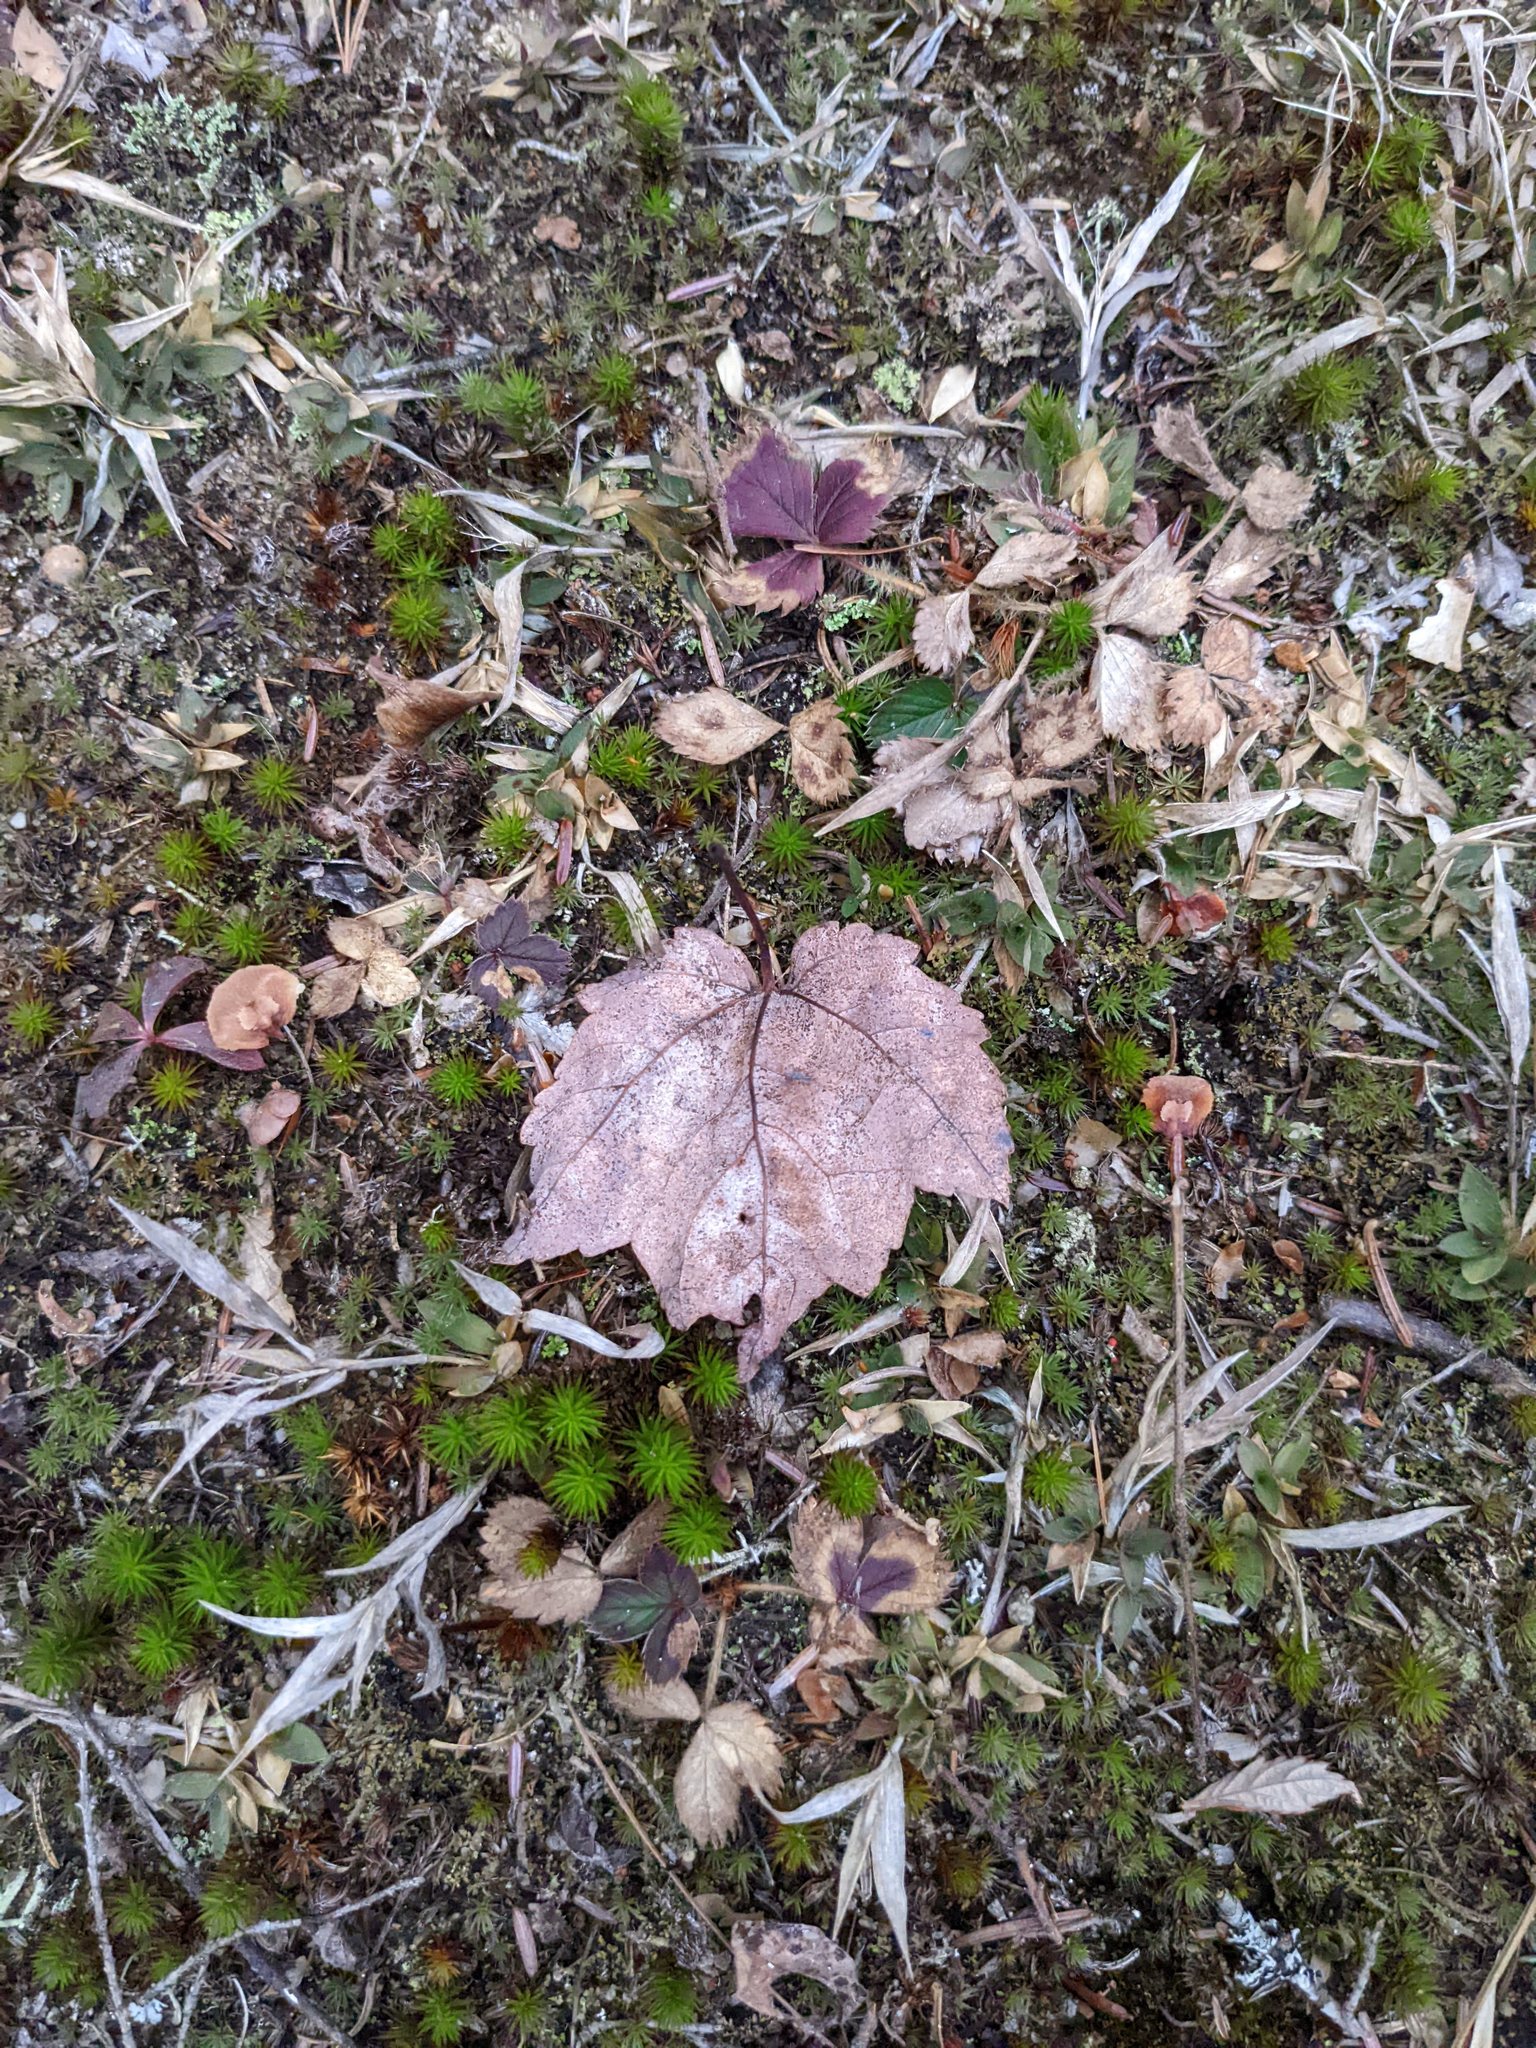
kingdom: Plantae
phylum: Tracheophyta
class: Magnoliopsida
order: Sapindales
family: Sapindaceae
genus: Acer
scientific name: Acer rubrum
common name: Red maple
